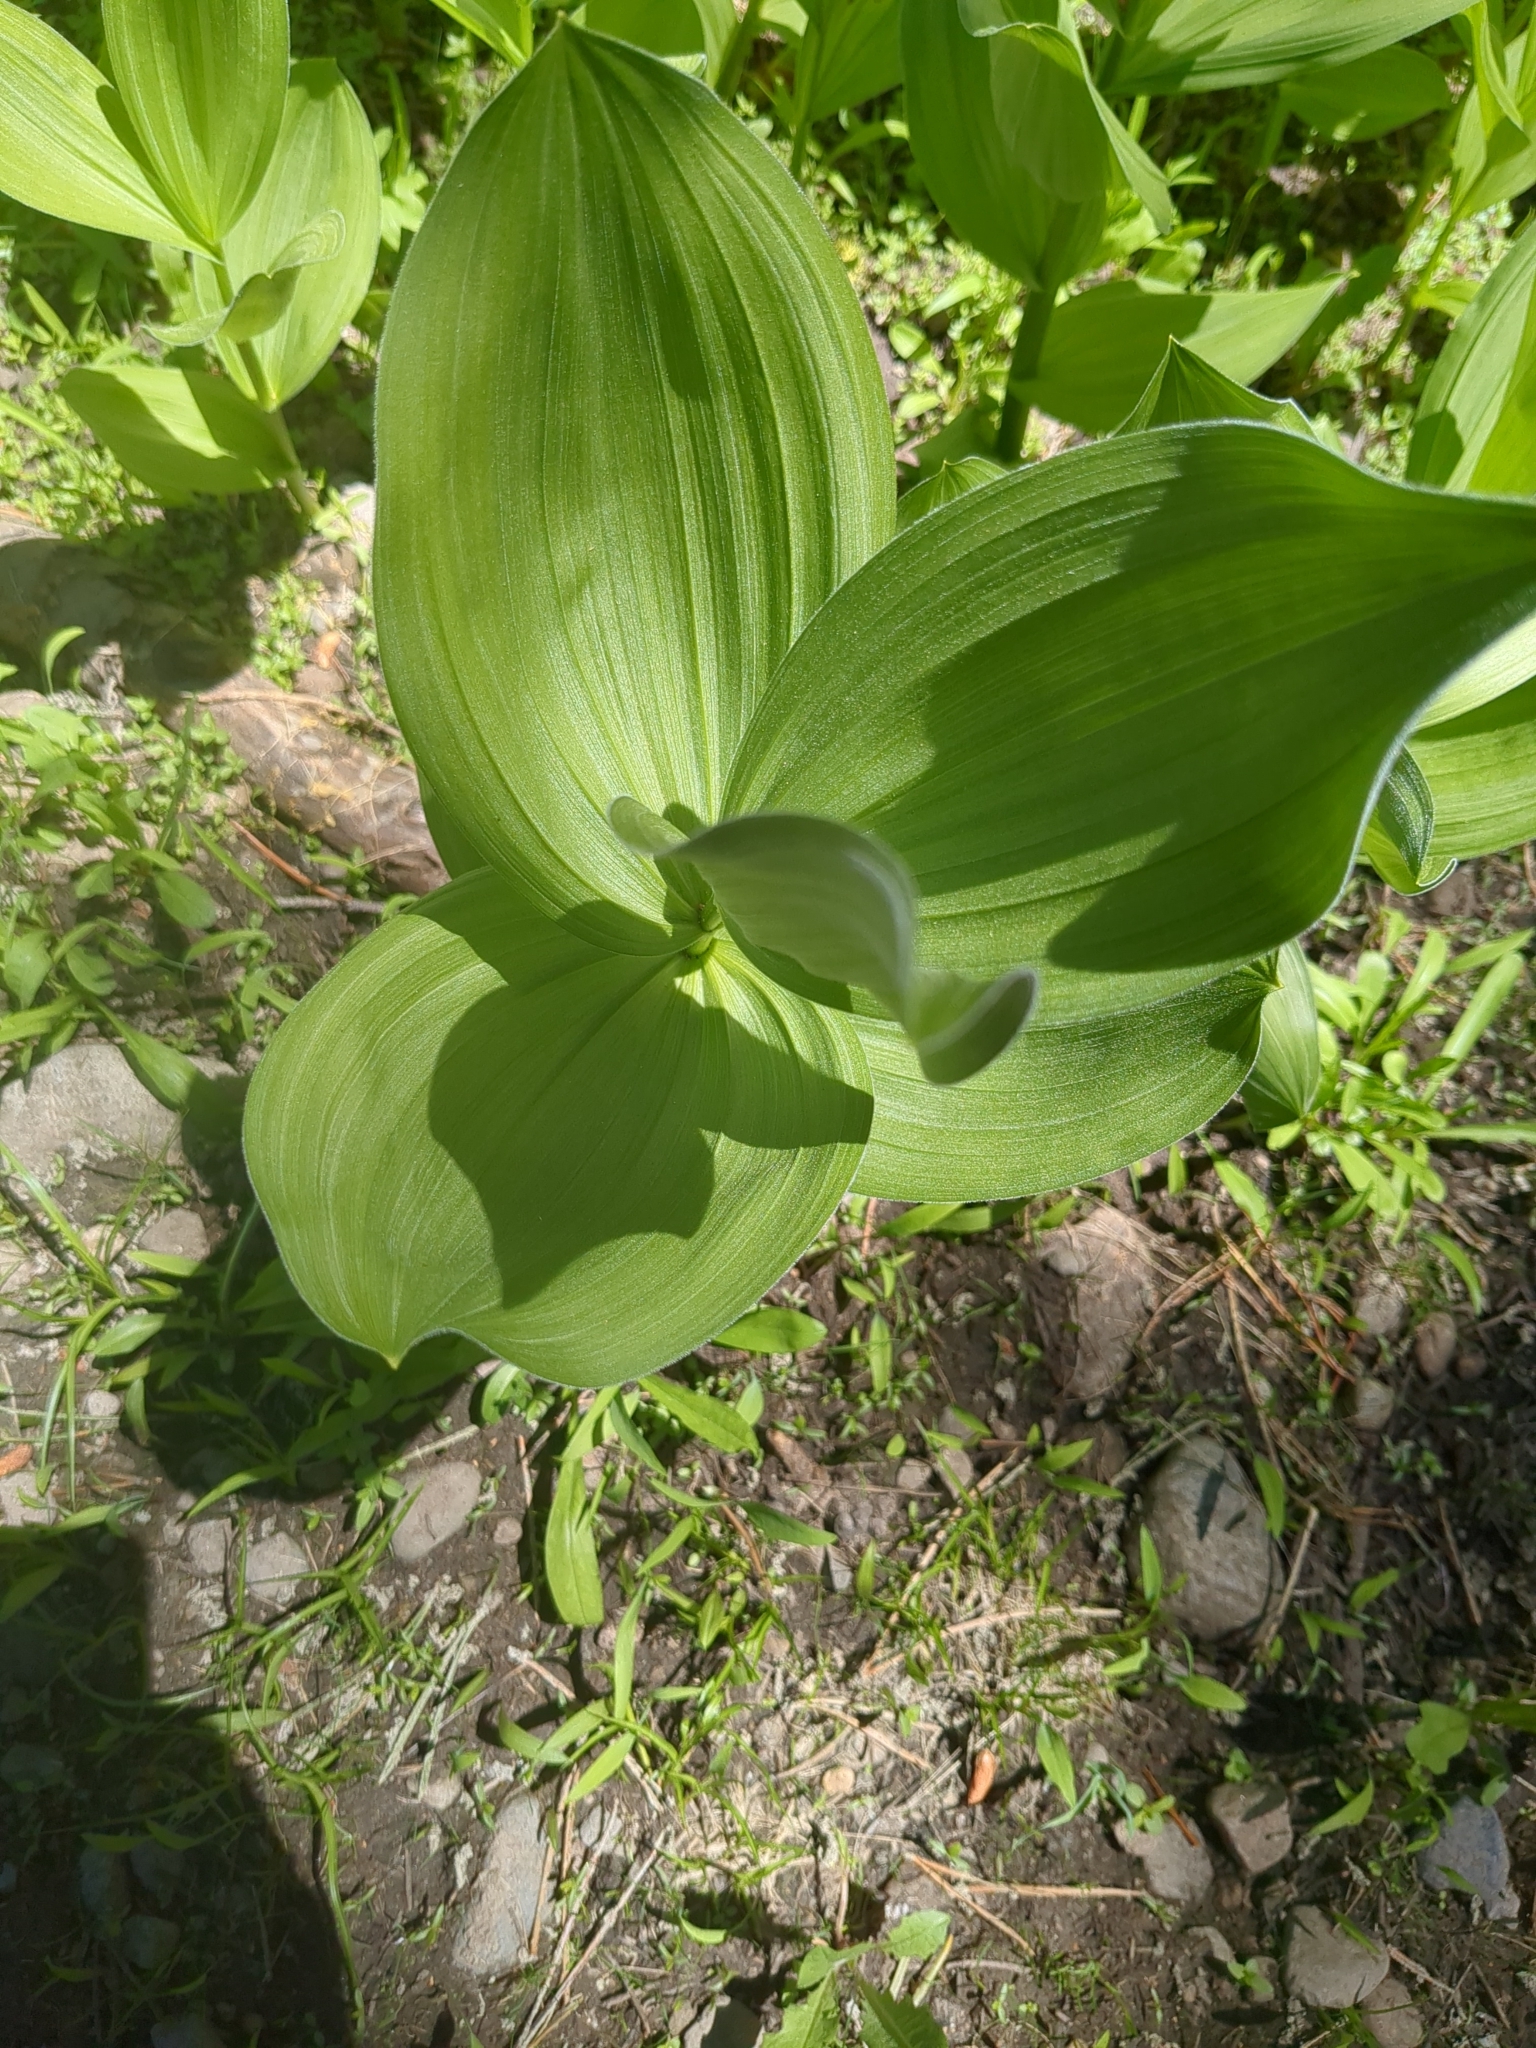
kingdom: Plantae
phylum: Tracheophyta
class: Liliopsida
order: Liliales
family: Melanthiaceae
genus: Veratrum
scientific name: Veratrum californicum
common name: California veratrum
